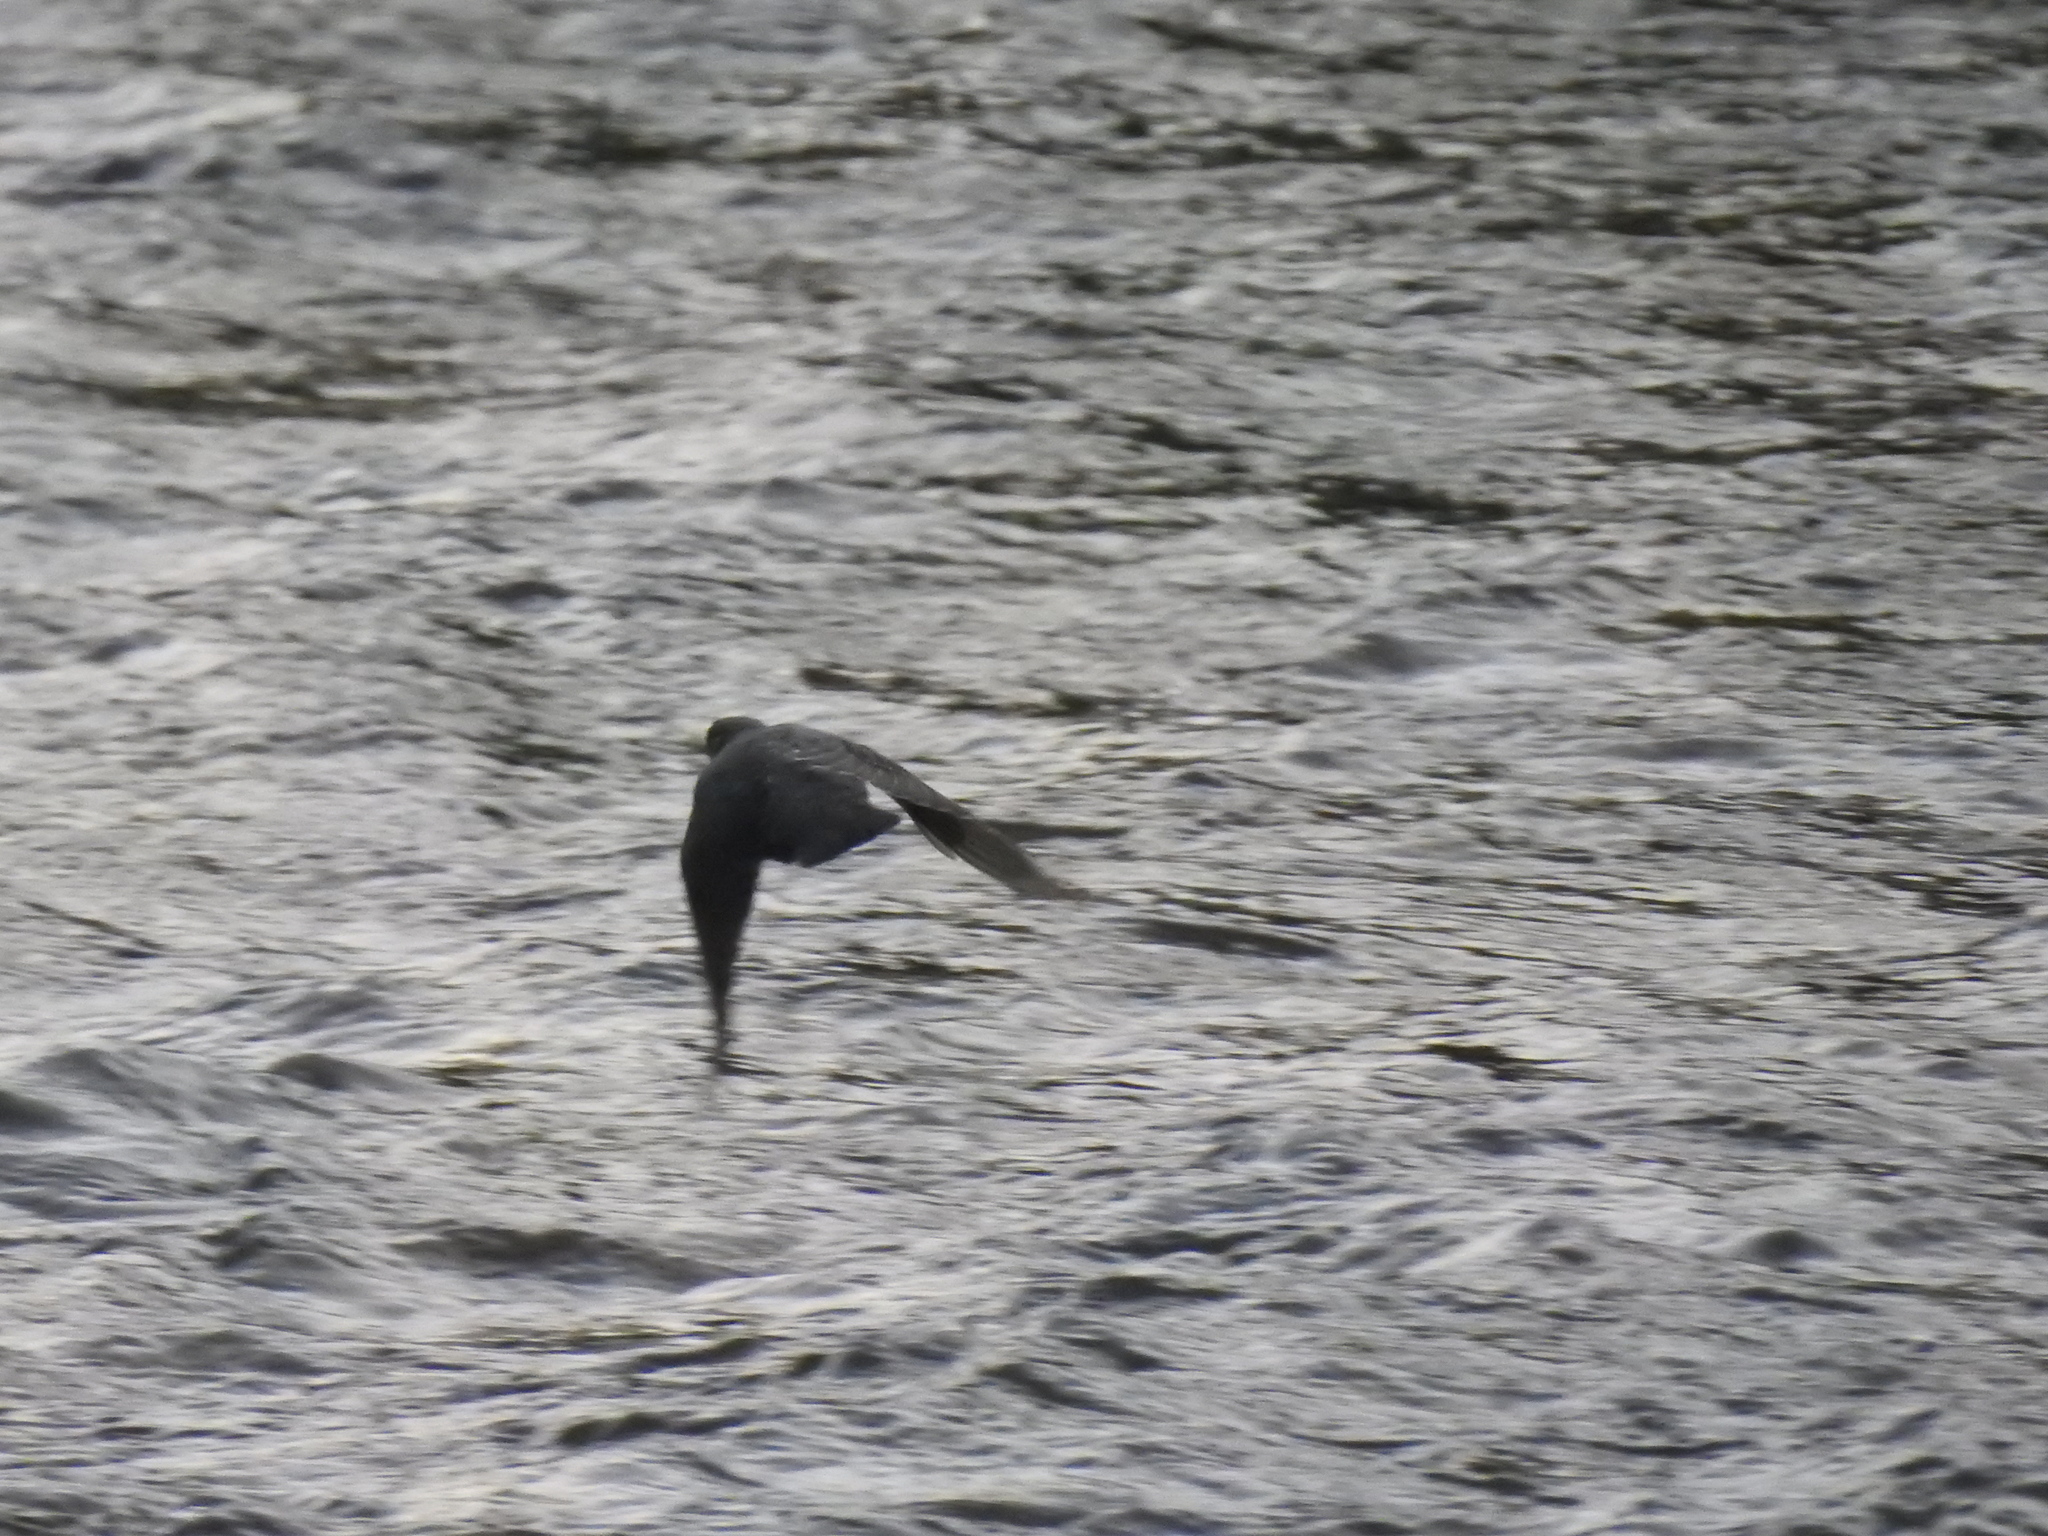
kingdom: Animalia
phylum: Chordata
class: Aves
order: Passeriformes
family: Cinclidae
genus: Cinclus
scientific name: Cinclus mexicanus
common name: American dipper
